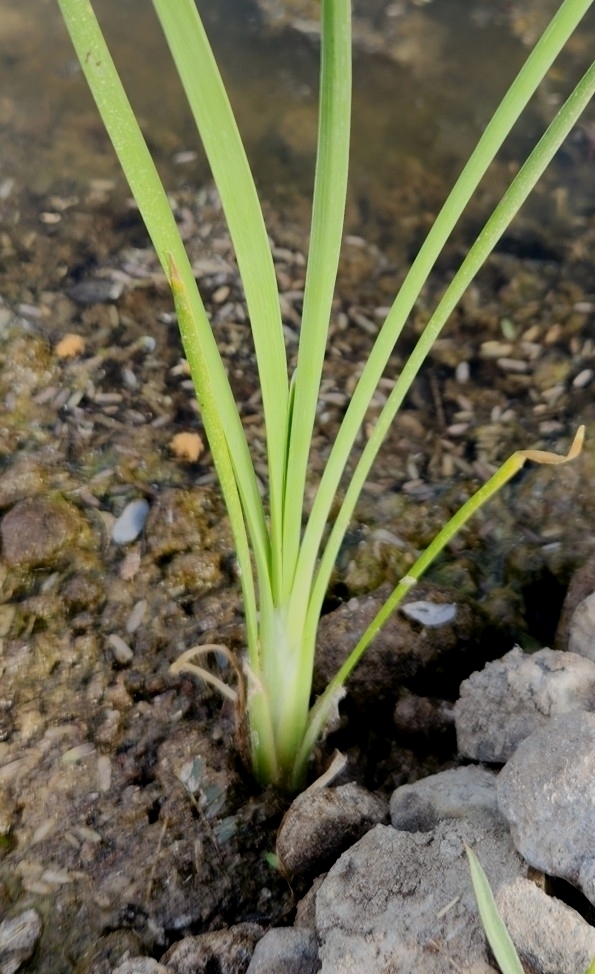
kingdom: Plantae
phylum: Tracheophyta
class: Liliopsida
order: Poales
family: Typhaceae
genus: Typha
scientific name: Typha domingensis
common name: Southern cattail
